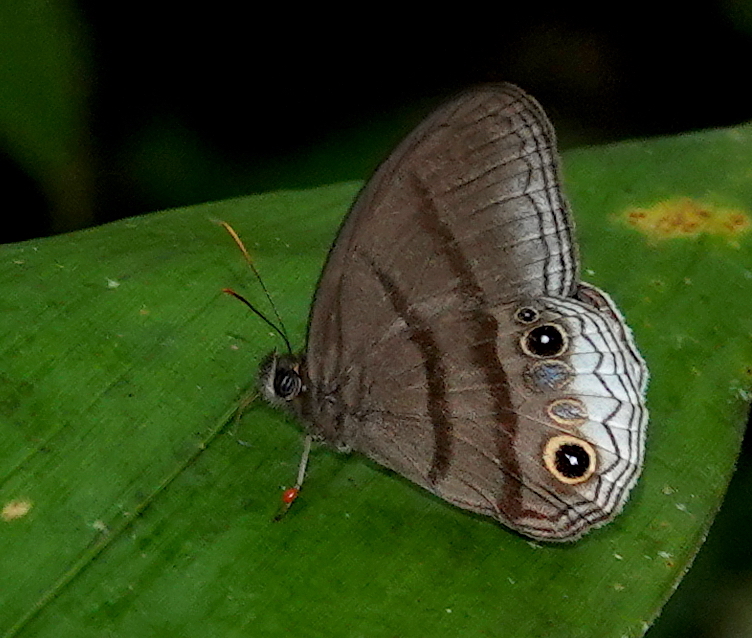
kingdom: Animalia
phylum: Arthropoda
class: Insecta
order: Lepidoptera
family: Nymphalidae
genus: Omacha
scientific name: Omacha
